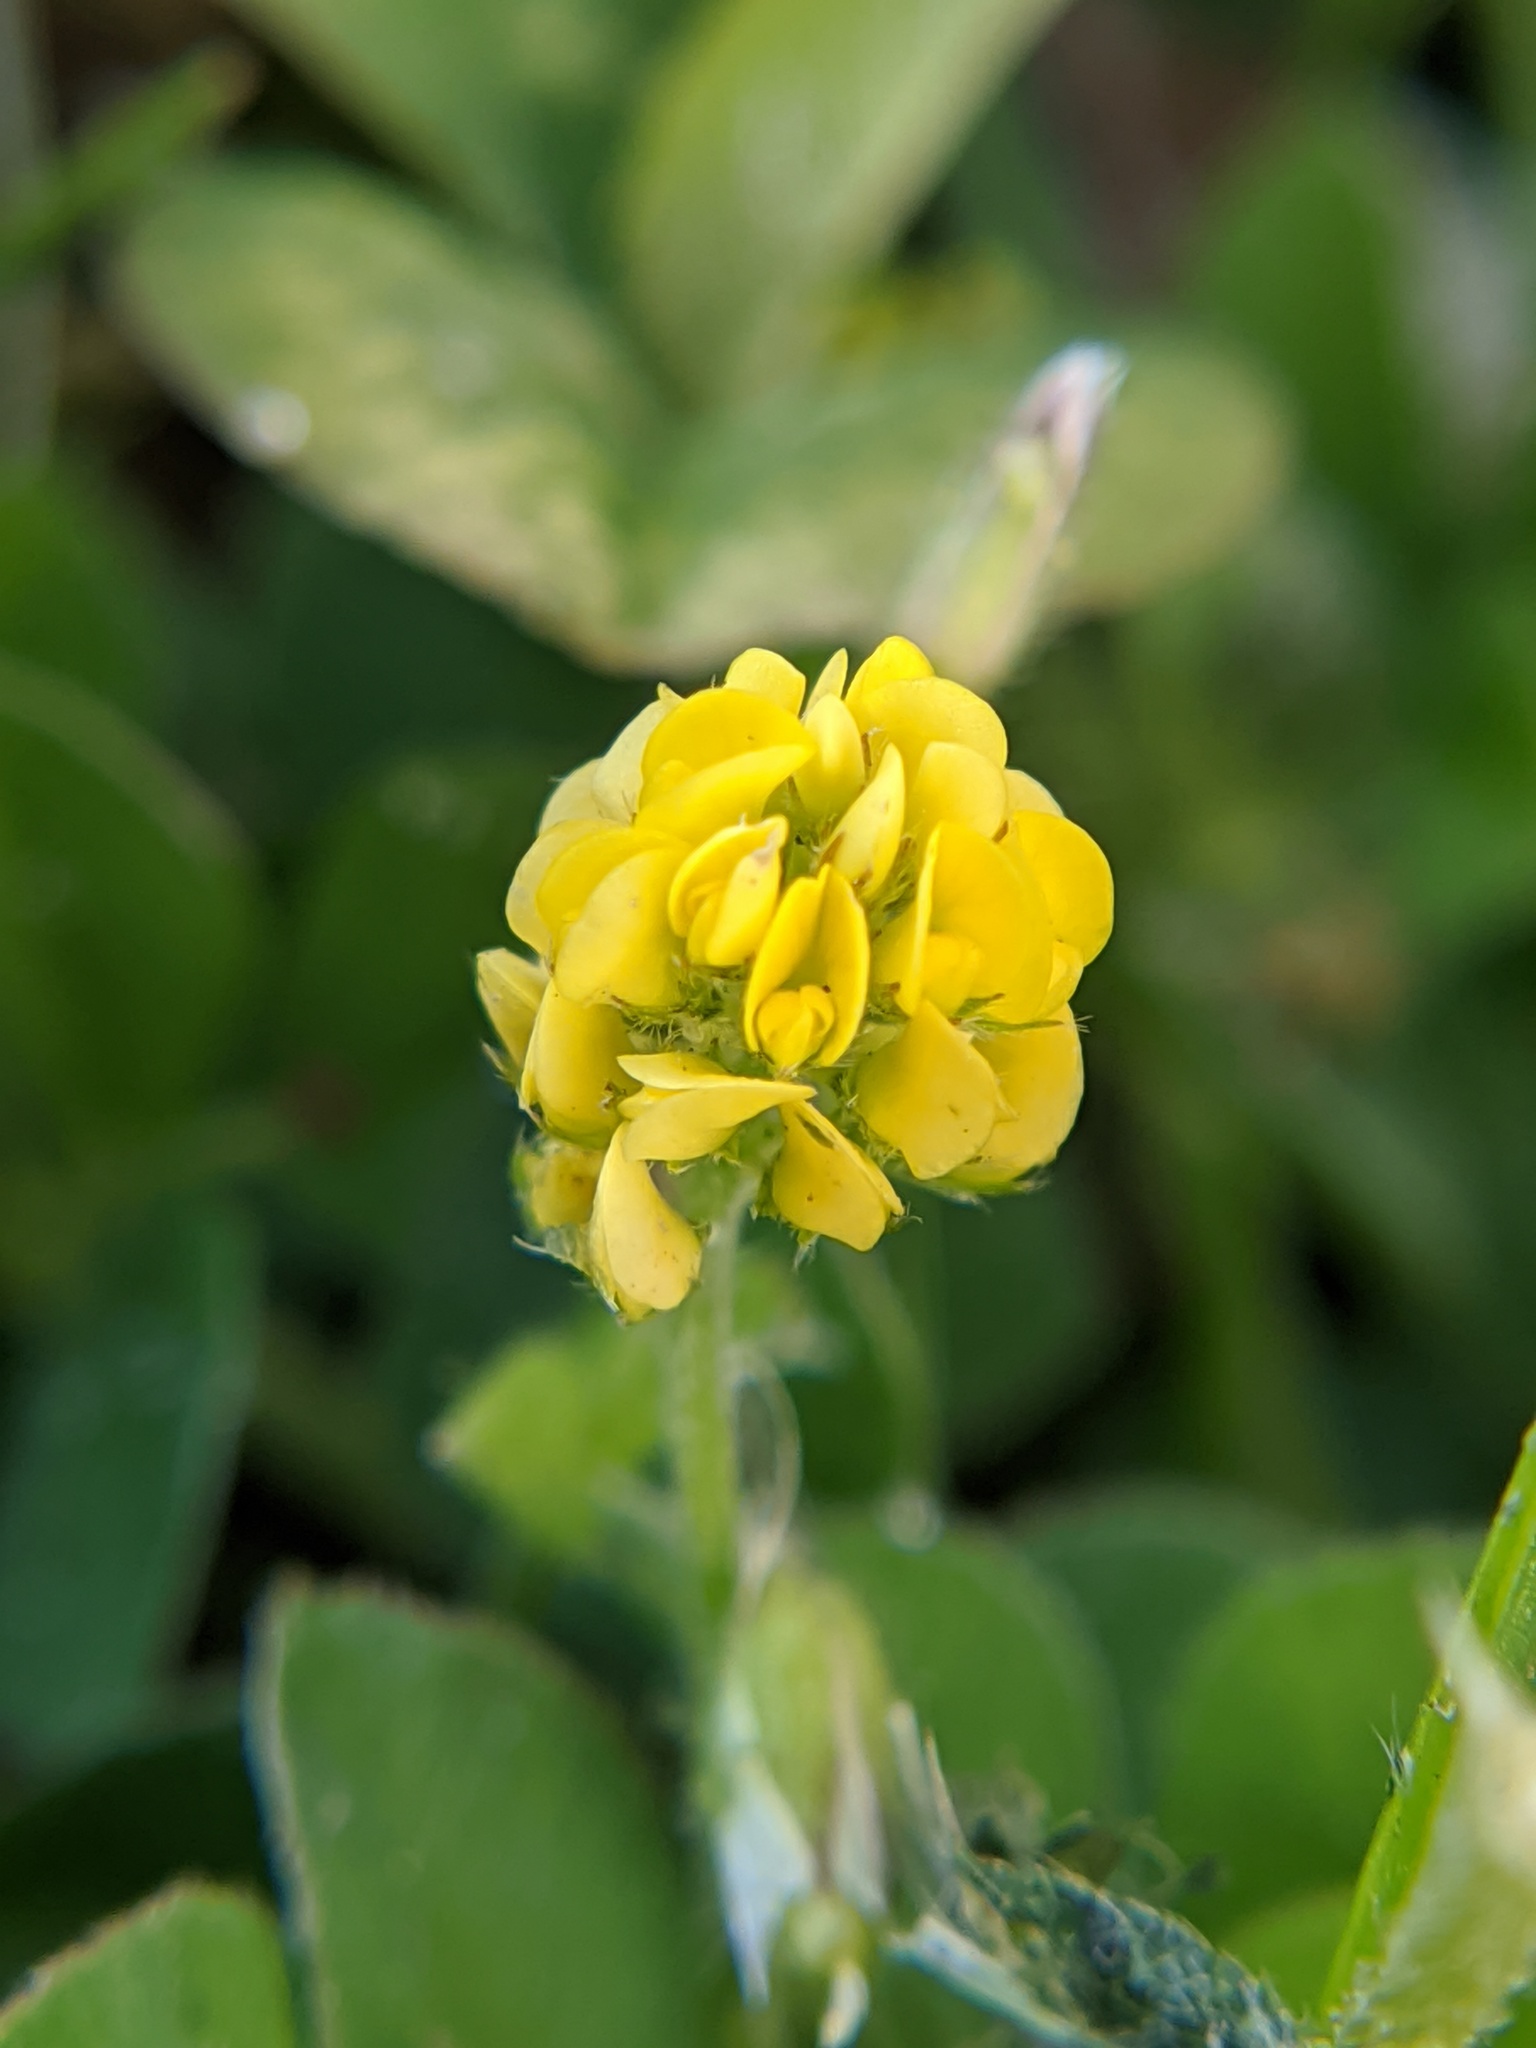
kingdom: Plantae
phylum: Tracheophyta
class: Magnoliopsida
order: Fabales
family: Fabaceae
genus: Medicago
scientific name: Medicago lupulina
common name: Black medick
